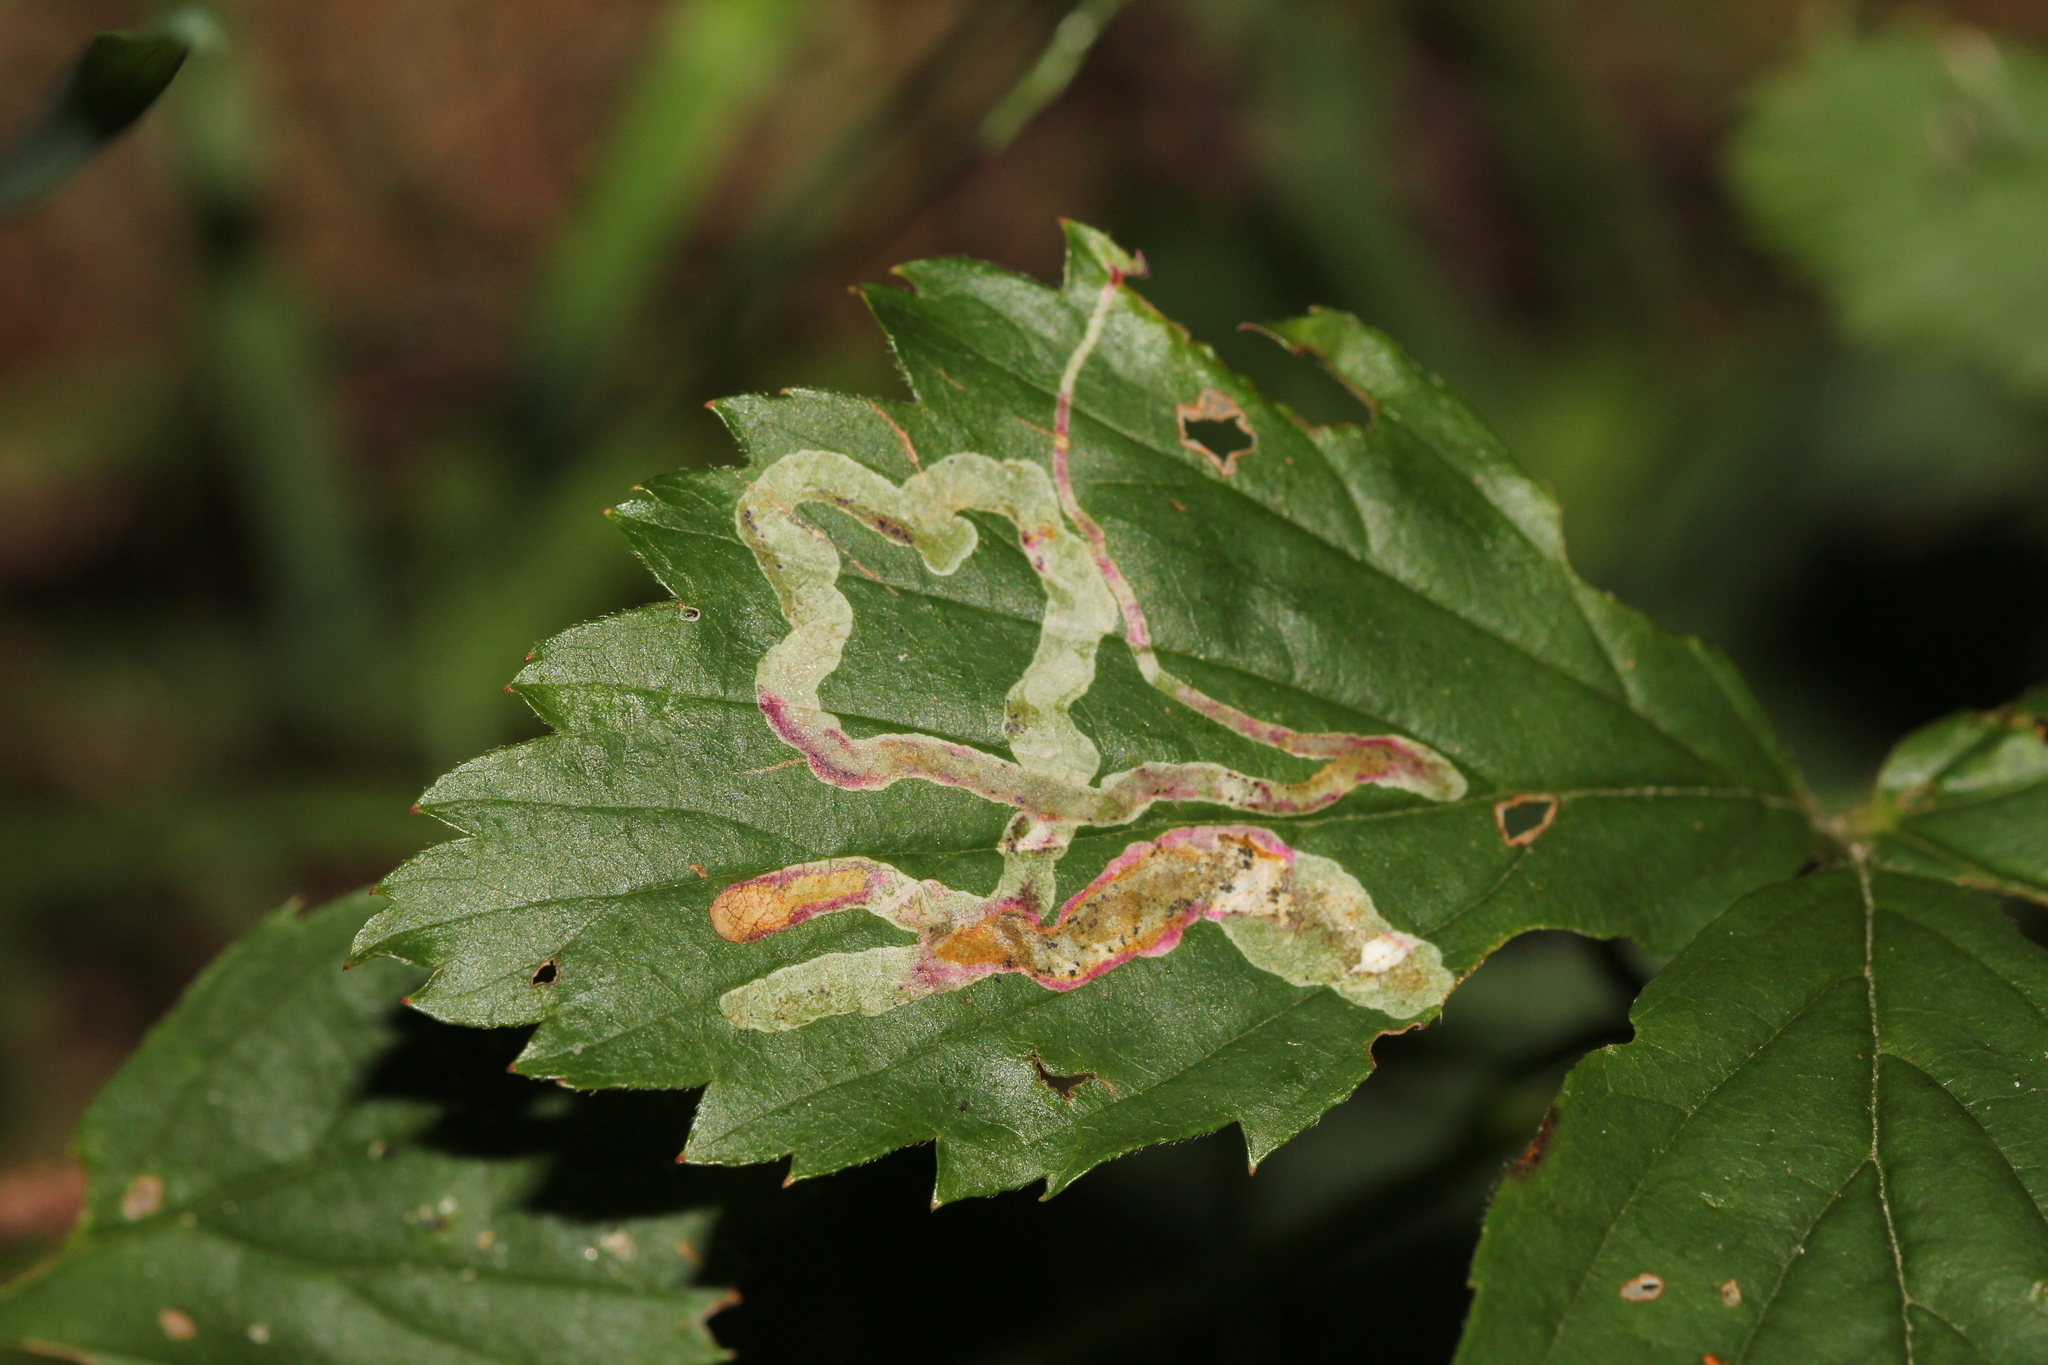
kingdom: Animalia
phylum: Arthropoda
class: Insecta
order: Diptera
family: Agromyzidae
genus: Agromyza
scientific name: Agromyza vockerothi
